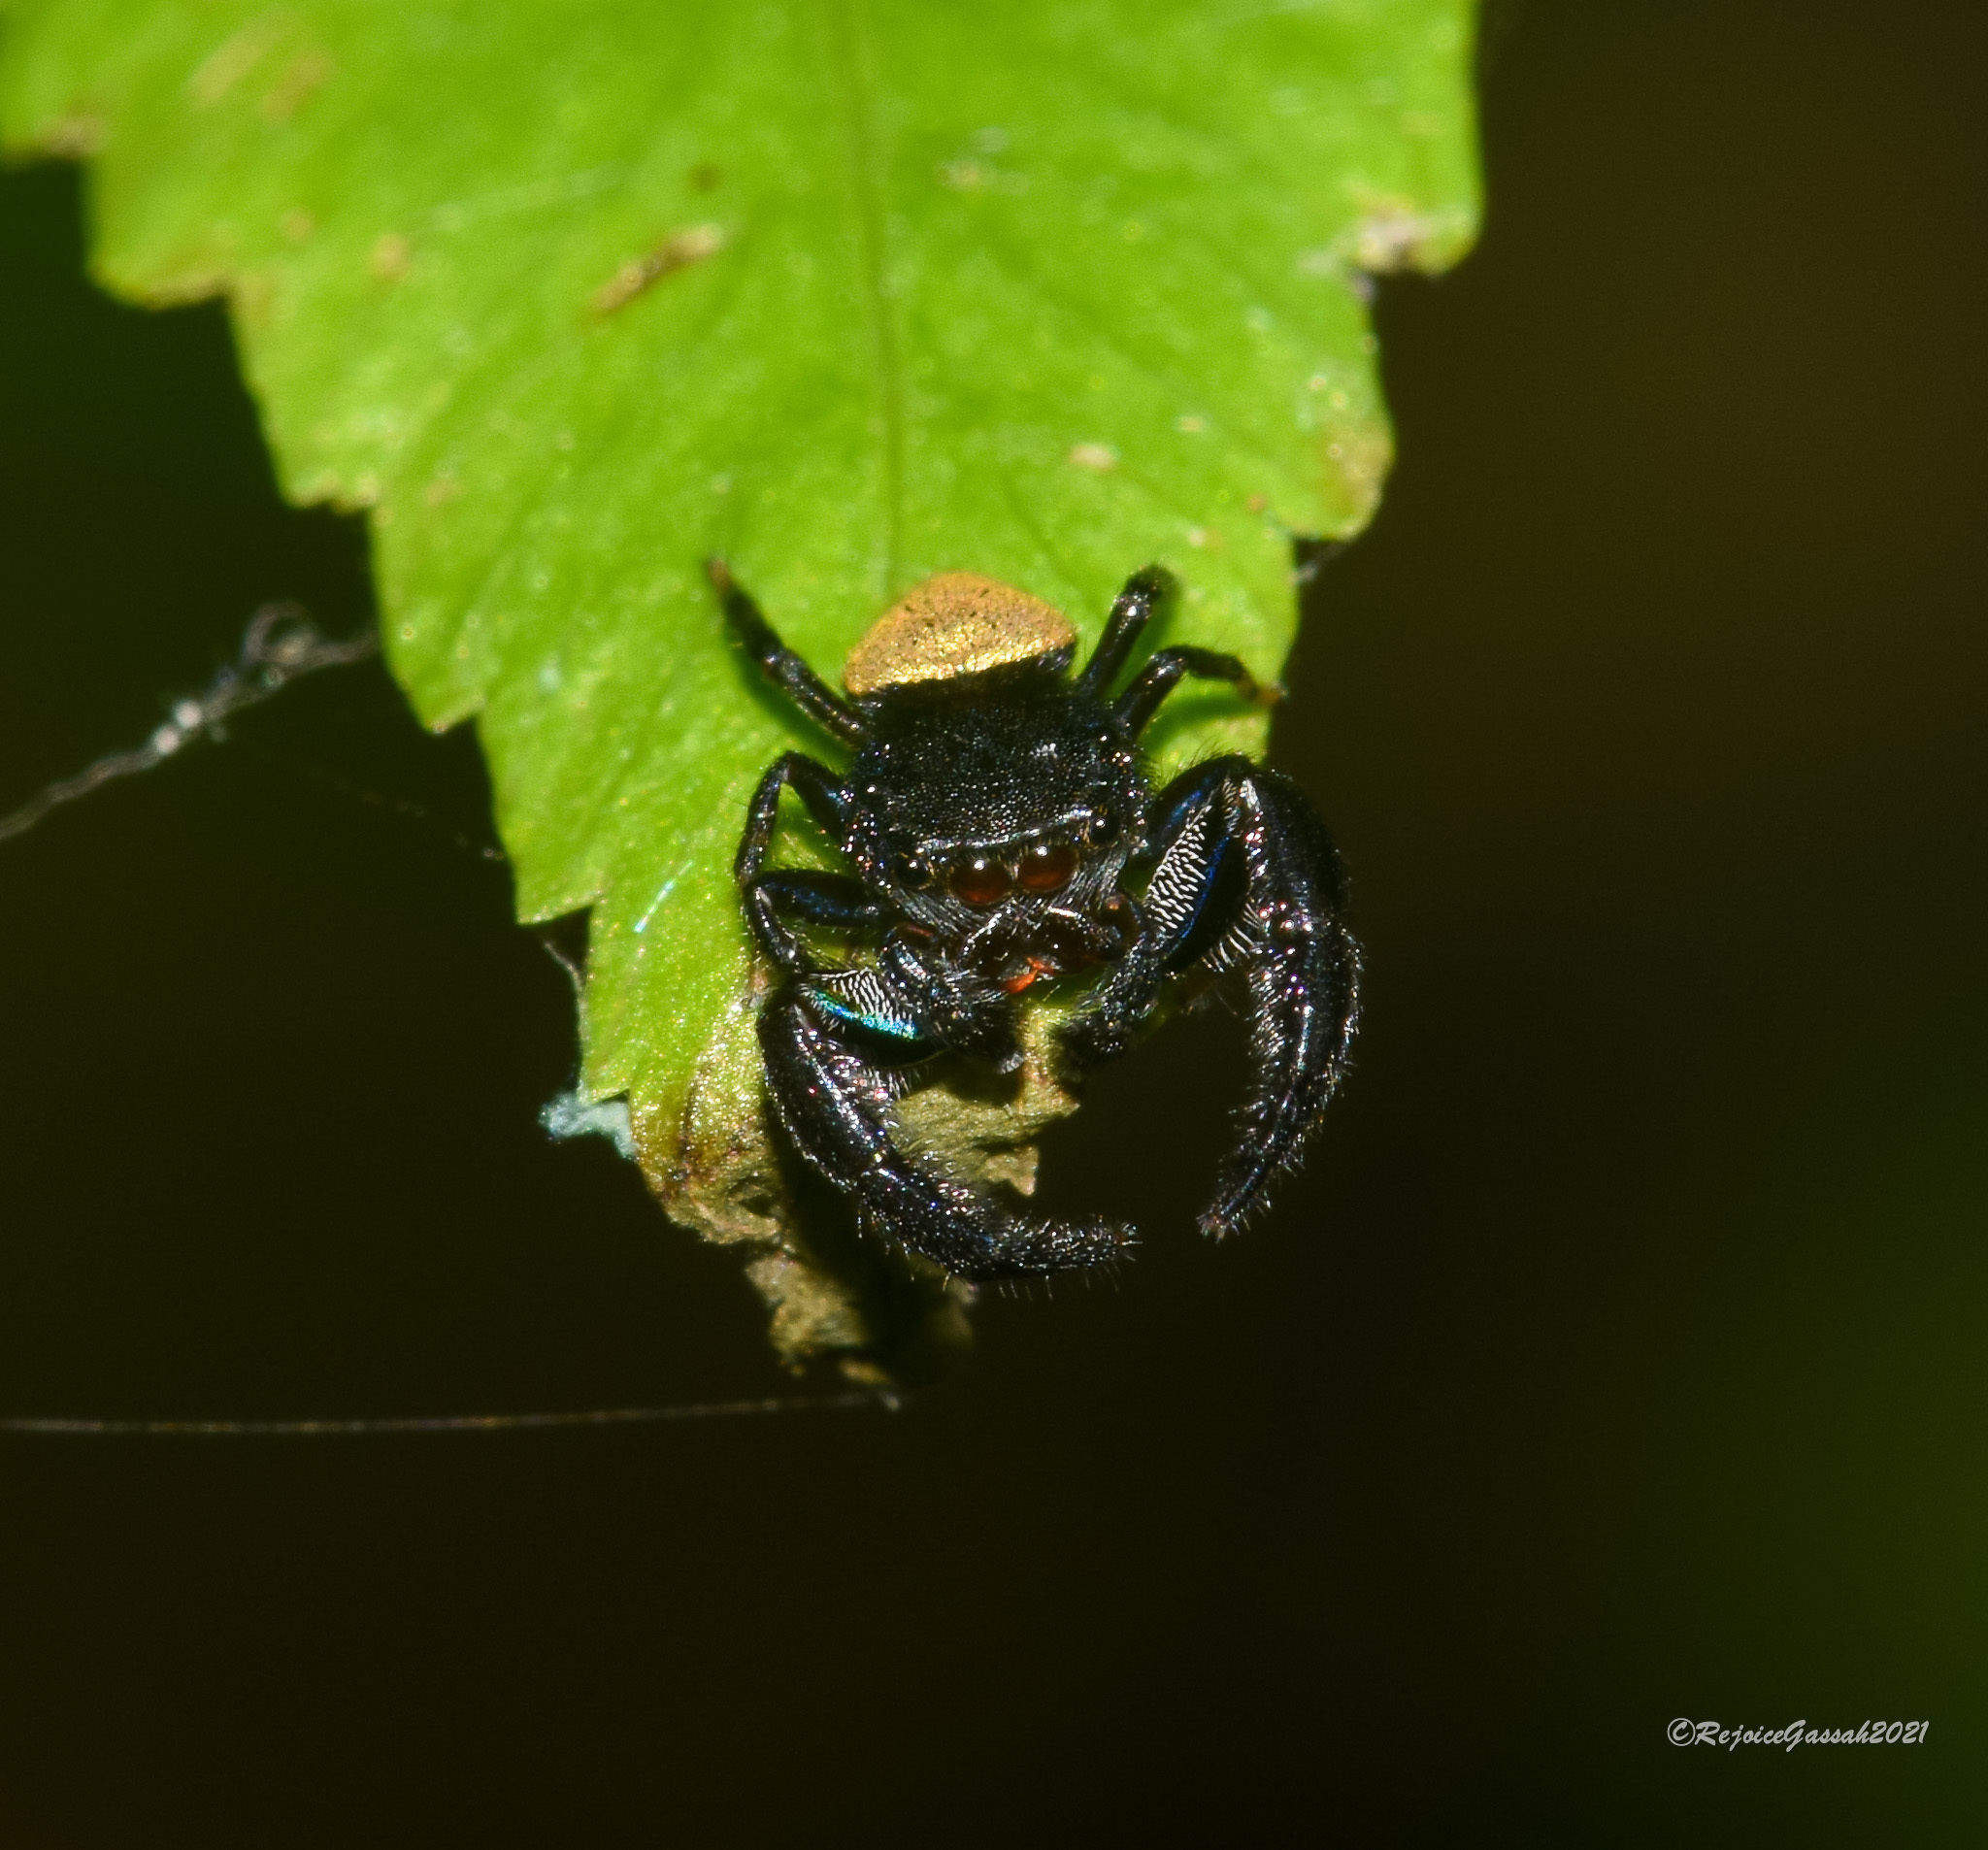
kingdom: Animalia
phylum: Arthropoda
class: Arachnida
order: Araneae
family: Salticidae
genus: Irura
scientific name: Irura mandarina
